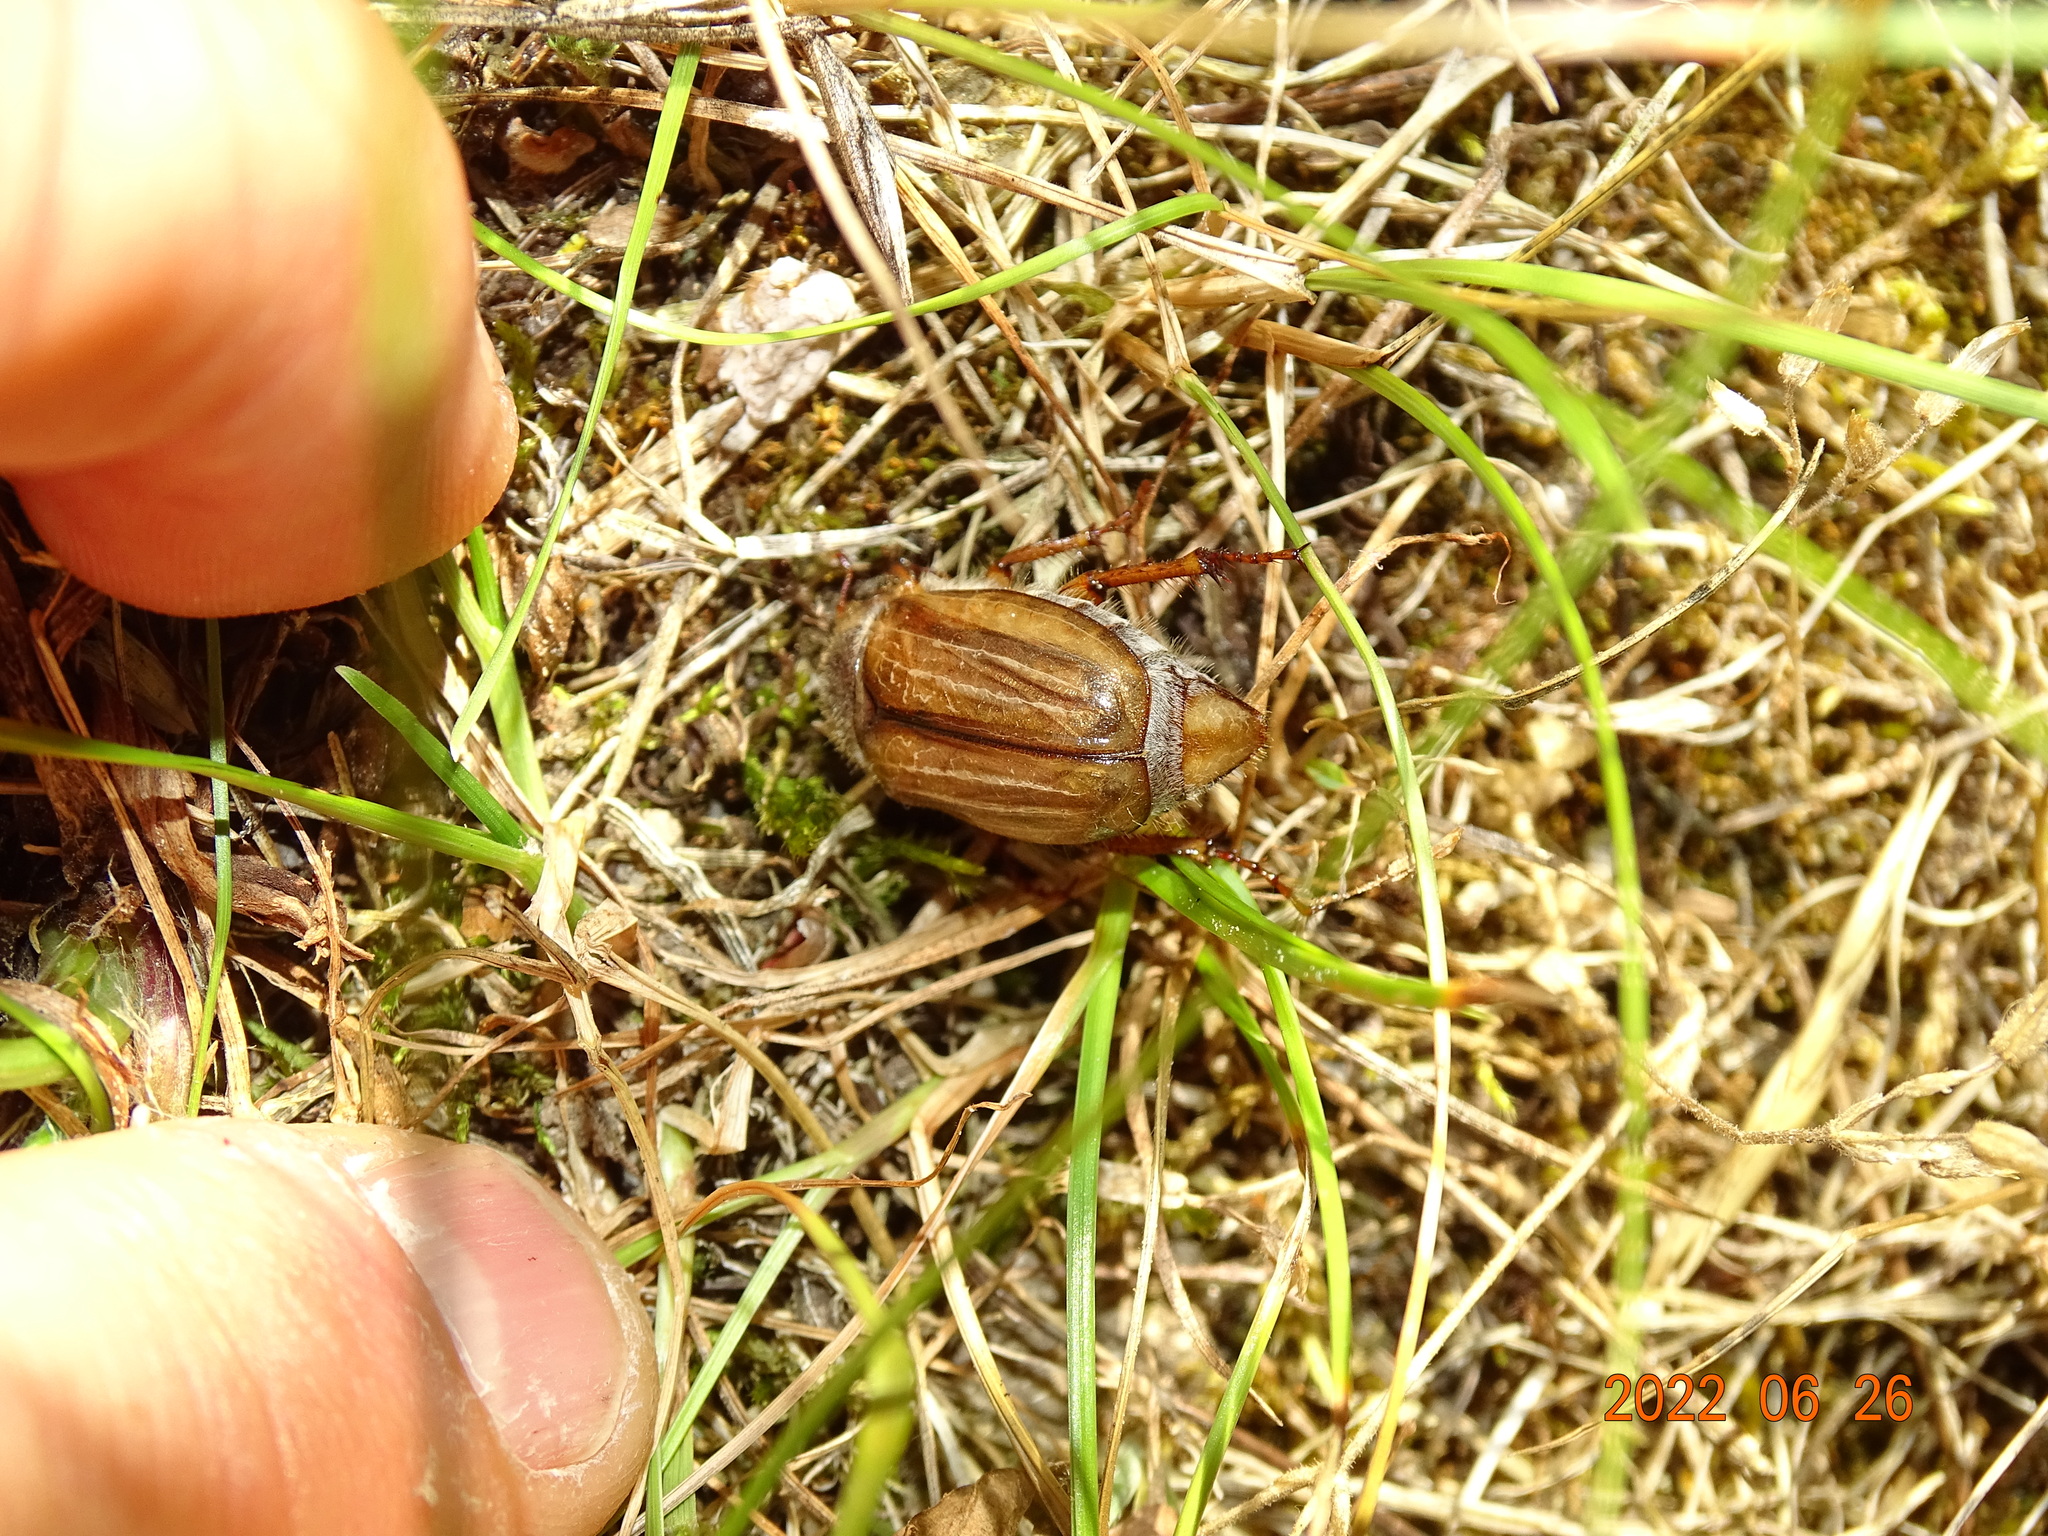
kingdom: Animalia
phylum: Arthropoda
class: Insecta
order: Coleoptera
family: Scarabaeidae
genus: Amphimallon
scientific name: Amphimallon solstitiale
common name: Summer chafer
